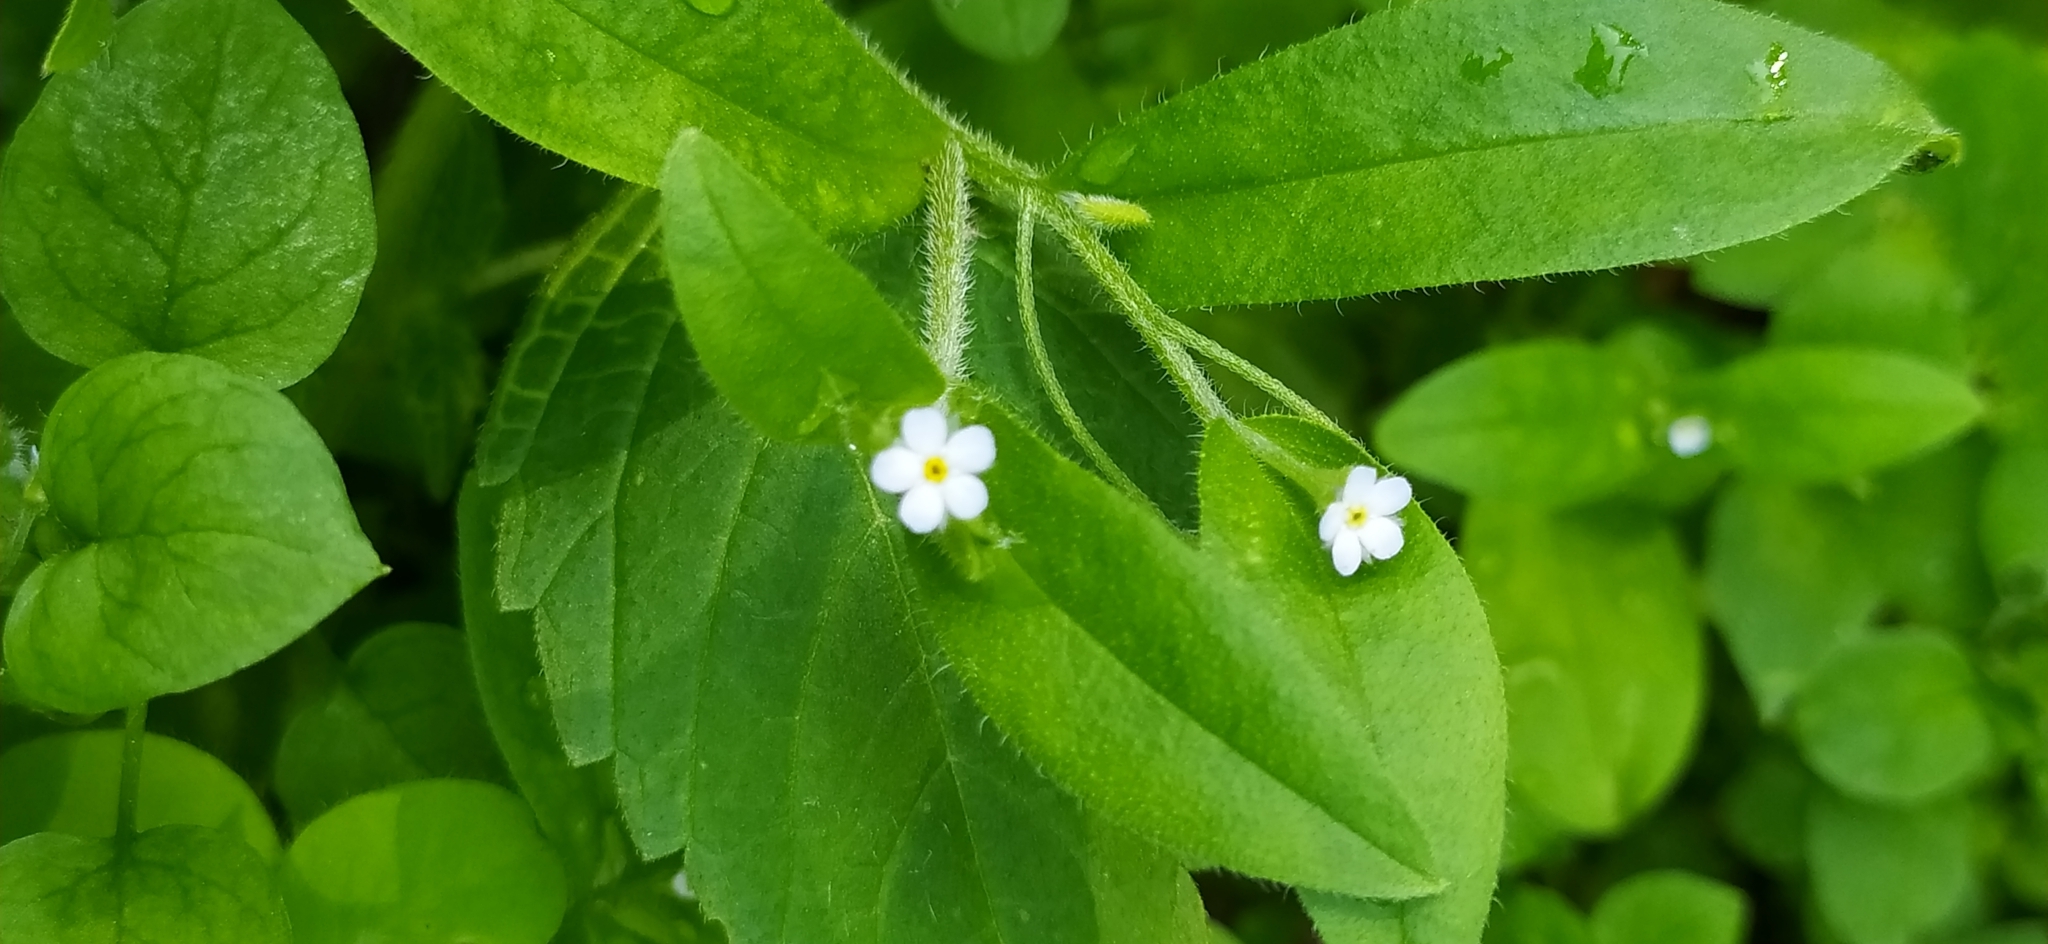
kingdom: Plantae
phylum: Tracheophyta
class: Magnoliopsida
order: Boraginales
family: Boraginaceae
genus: Myosotis
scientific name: Myosotis sparsiflora
